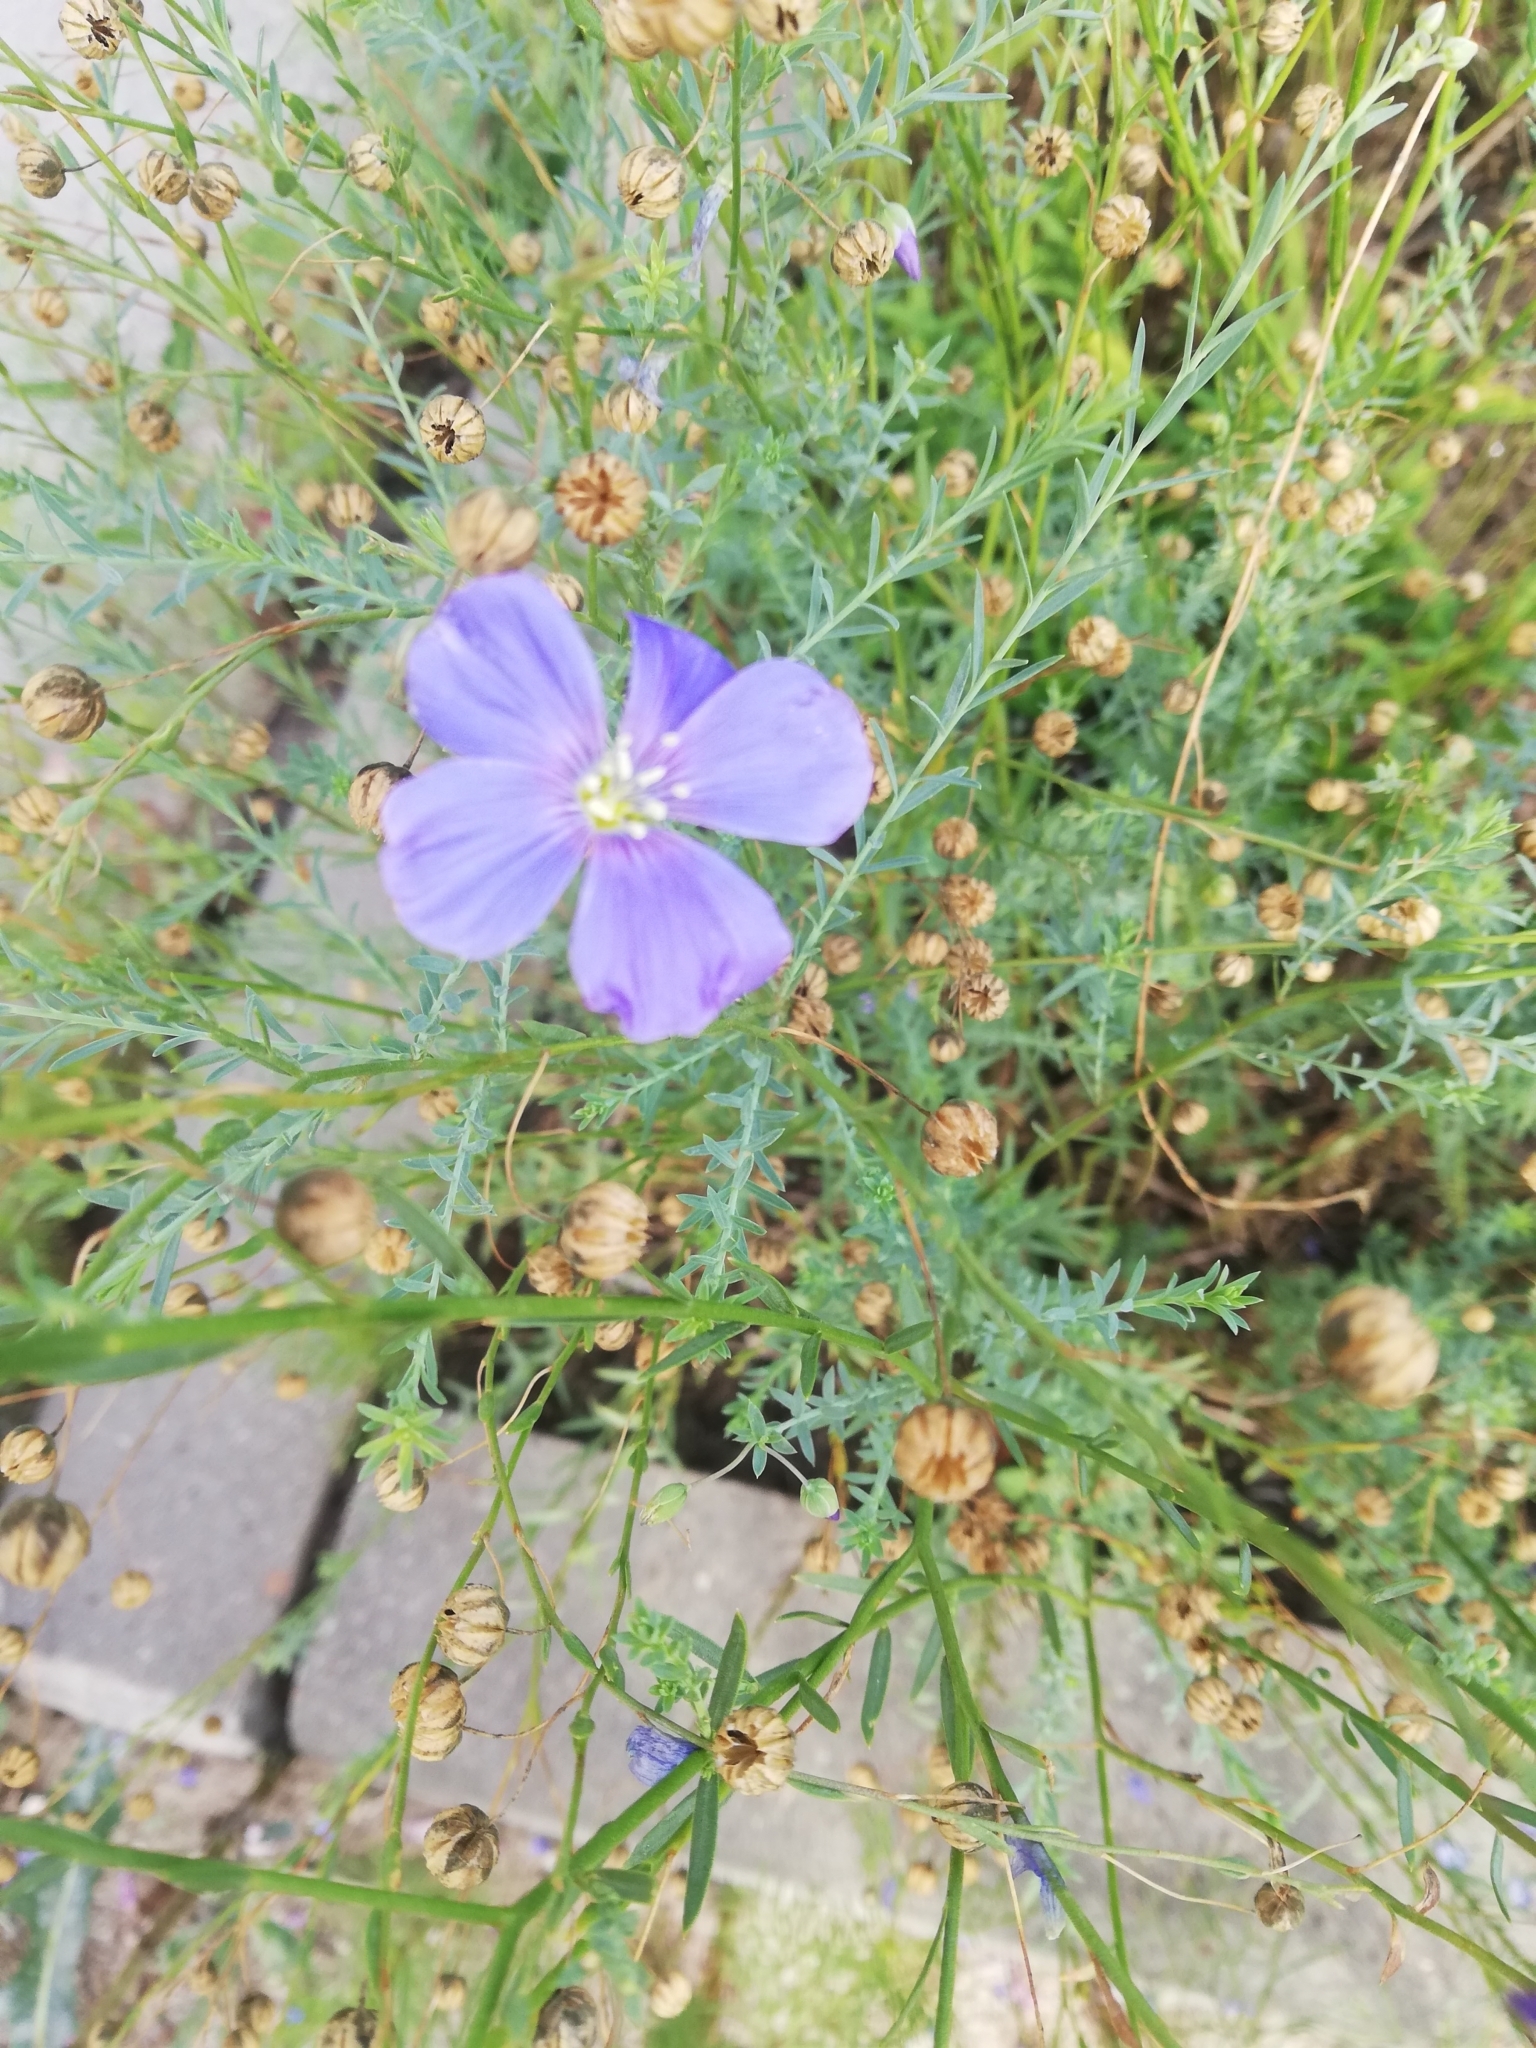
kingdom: Plantae
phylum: Tracheophyta
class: Magnoliopsida
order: Malpighiales
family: Linaceae
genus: Linum
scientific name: Linum perenne
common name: Blue flax
